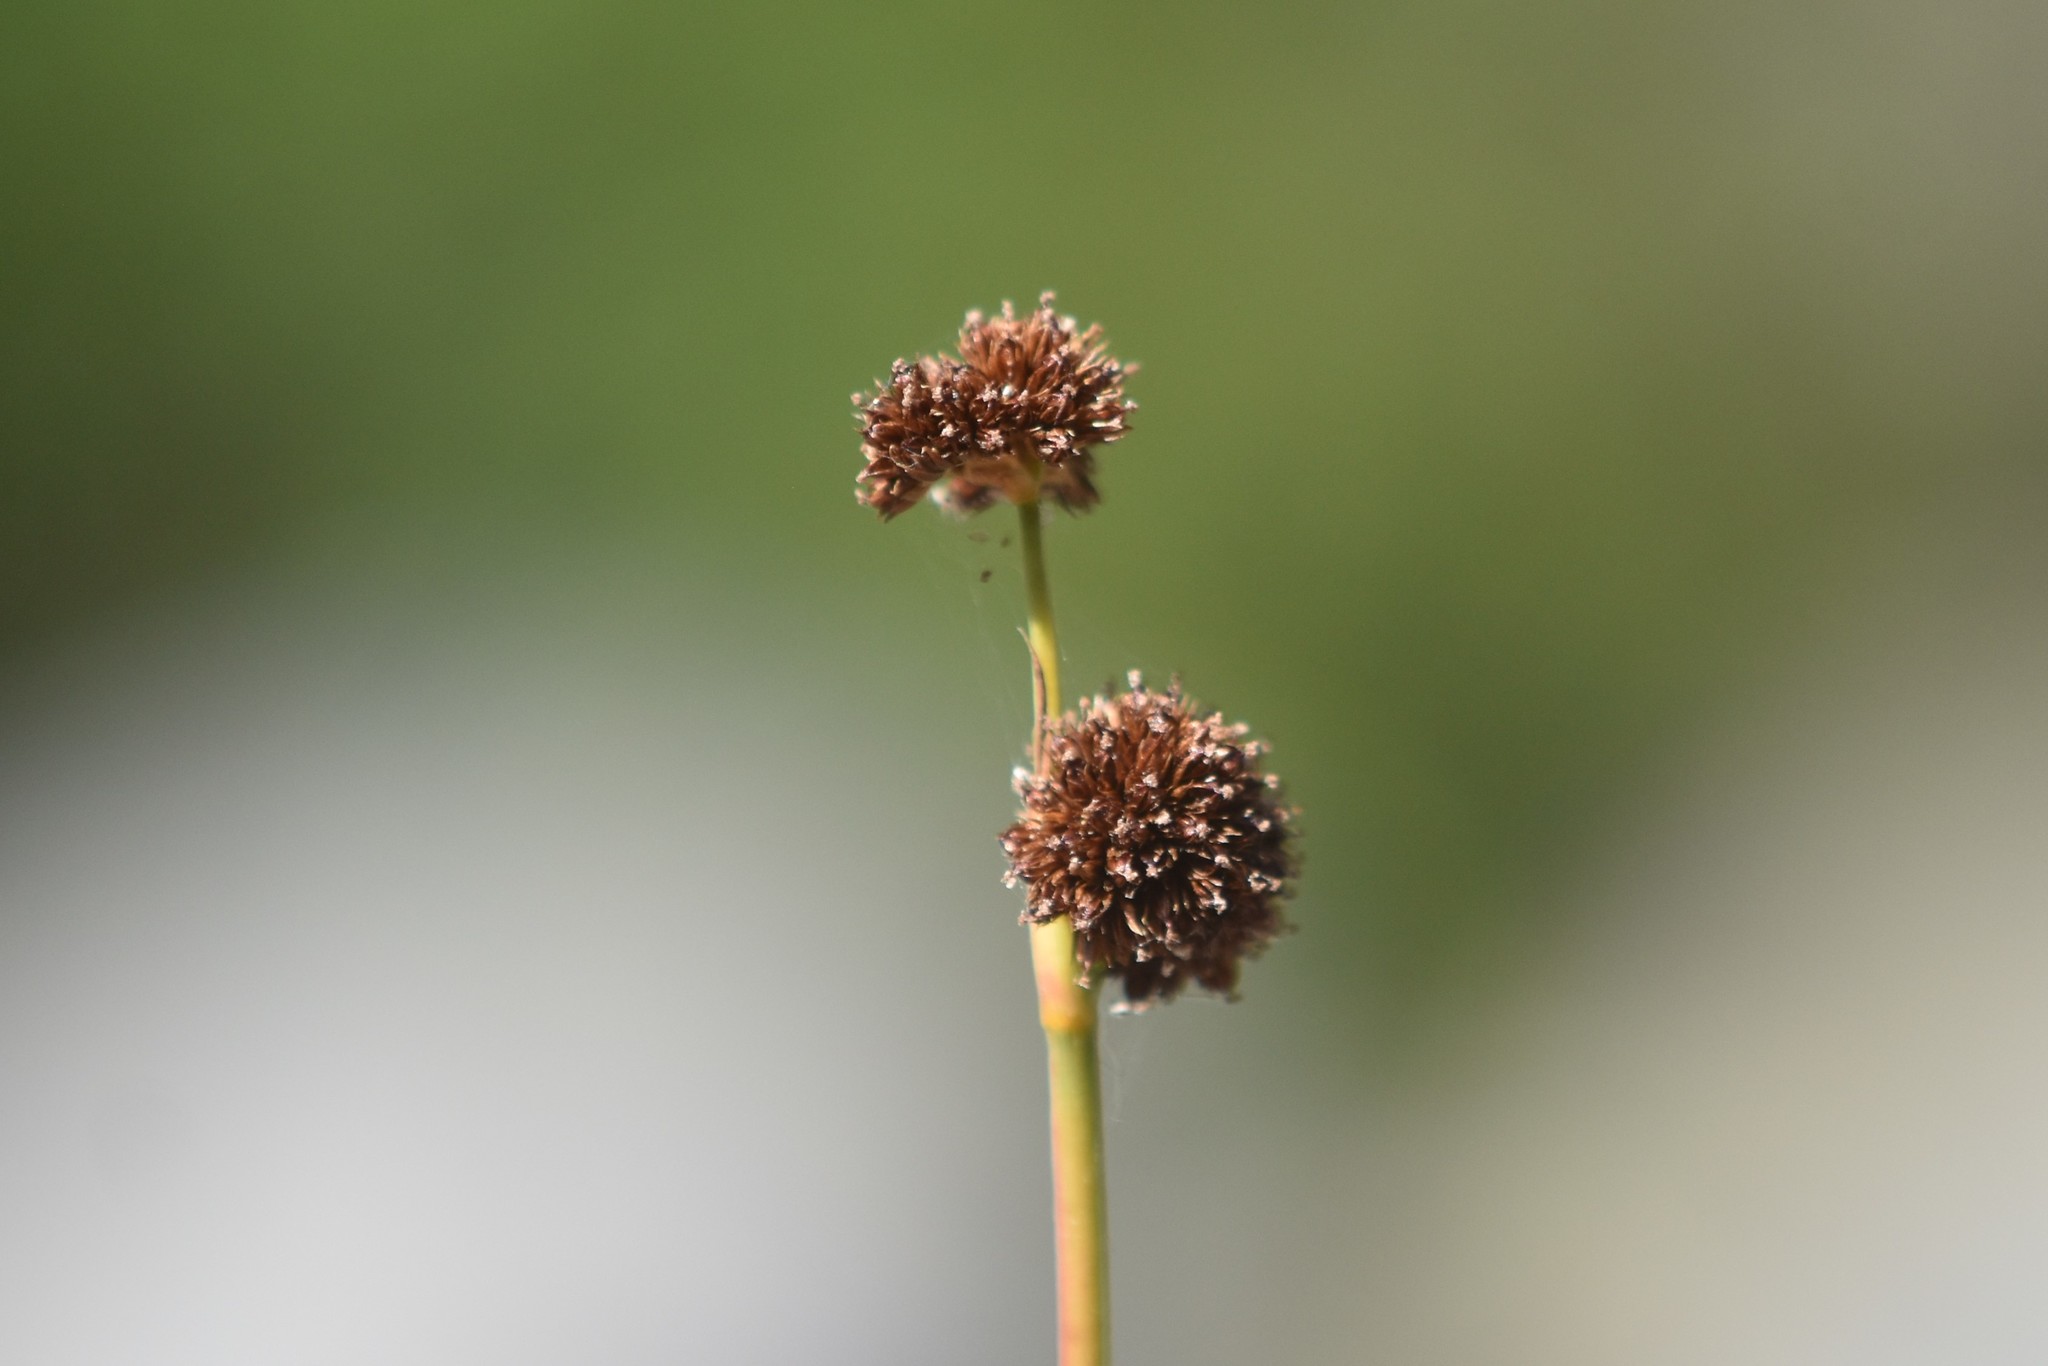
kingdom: Plantae
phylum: Tracheophyta
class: Liliopsida
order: Poales
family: Juncaceae
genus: Juncus
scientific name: Juncus ensifolius
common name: Sword-leaved rush
